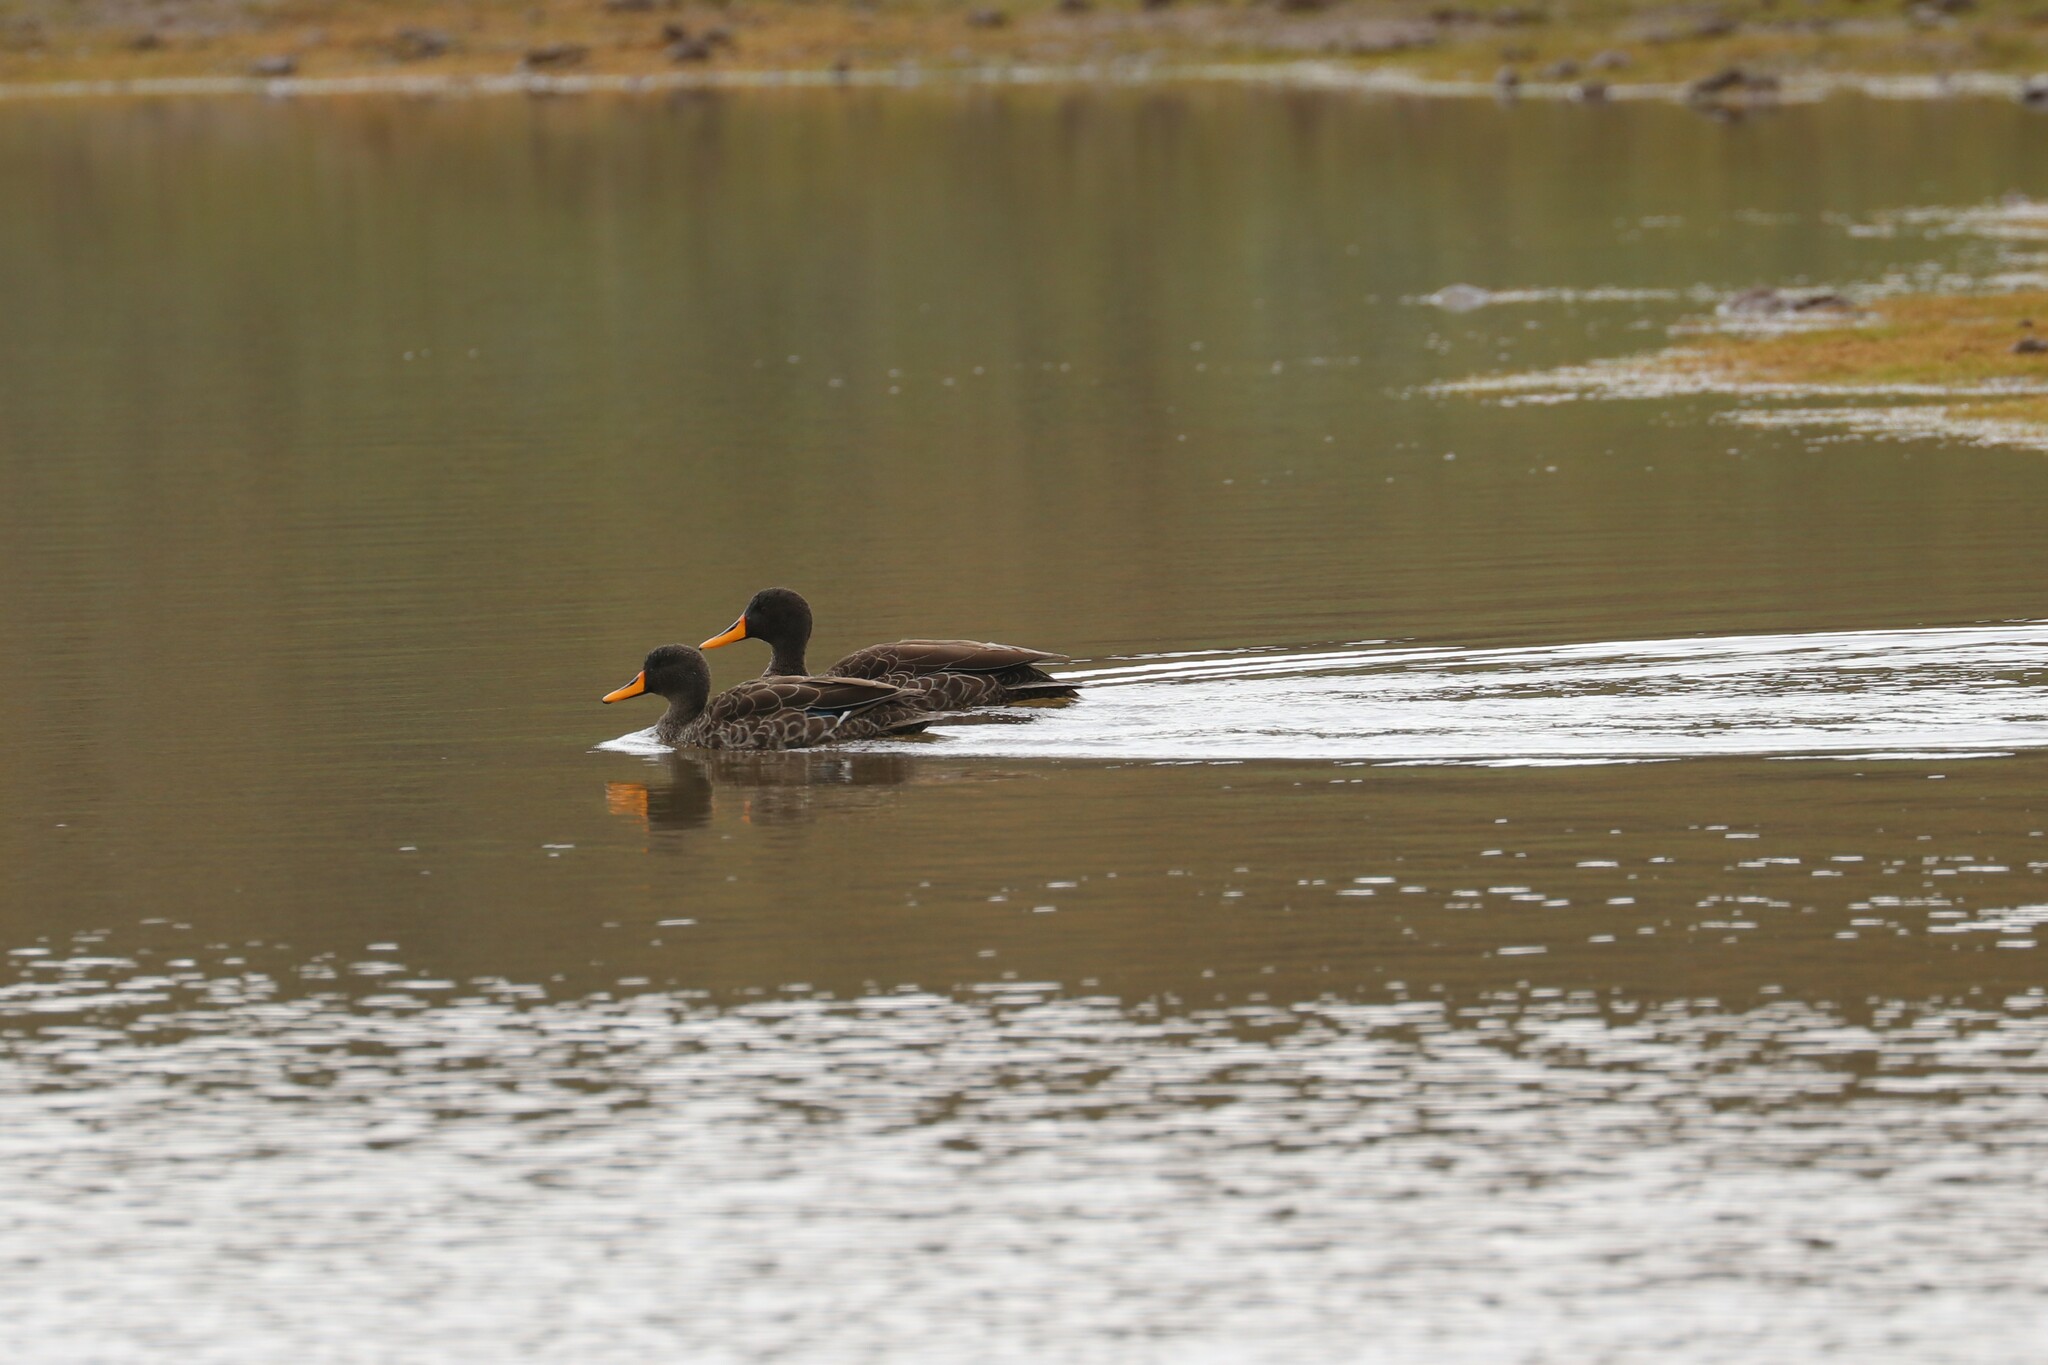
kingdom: Animalia
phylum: Chordata
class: Aves
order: Anseriformes
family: Anatidae
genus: Anas
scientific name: Anas undulata
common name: Yellow-billed duck
